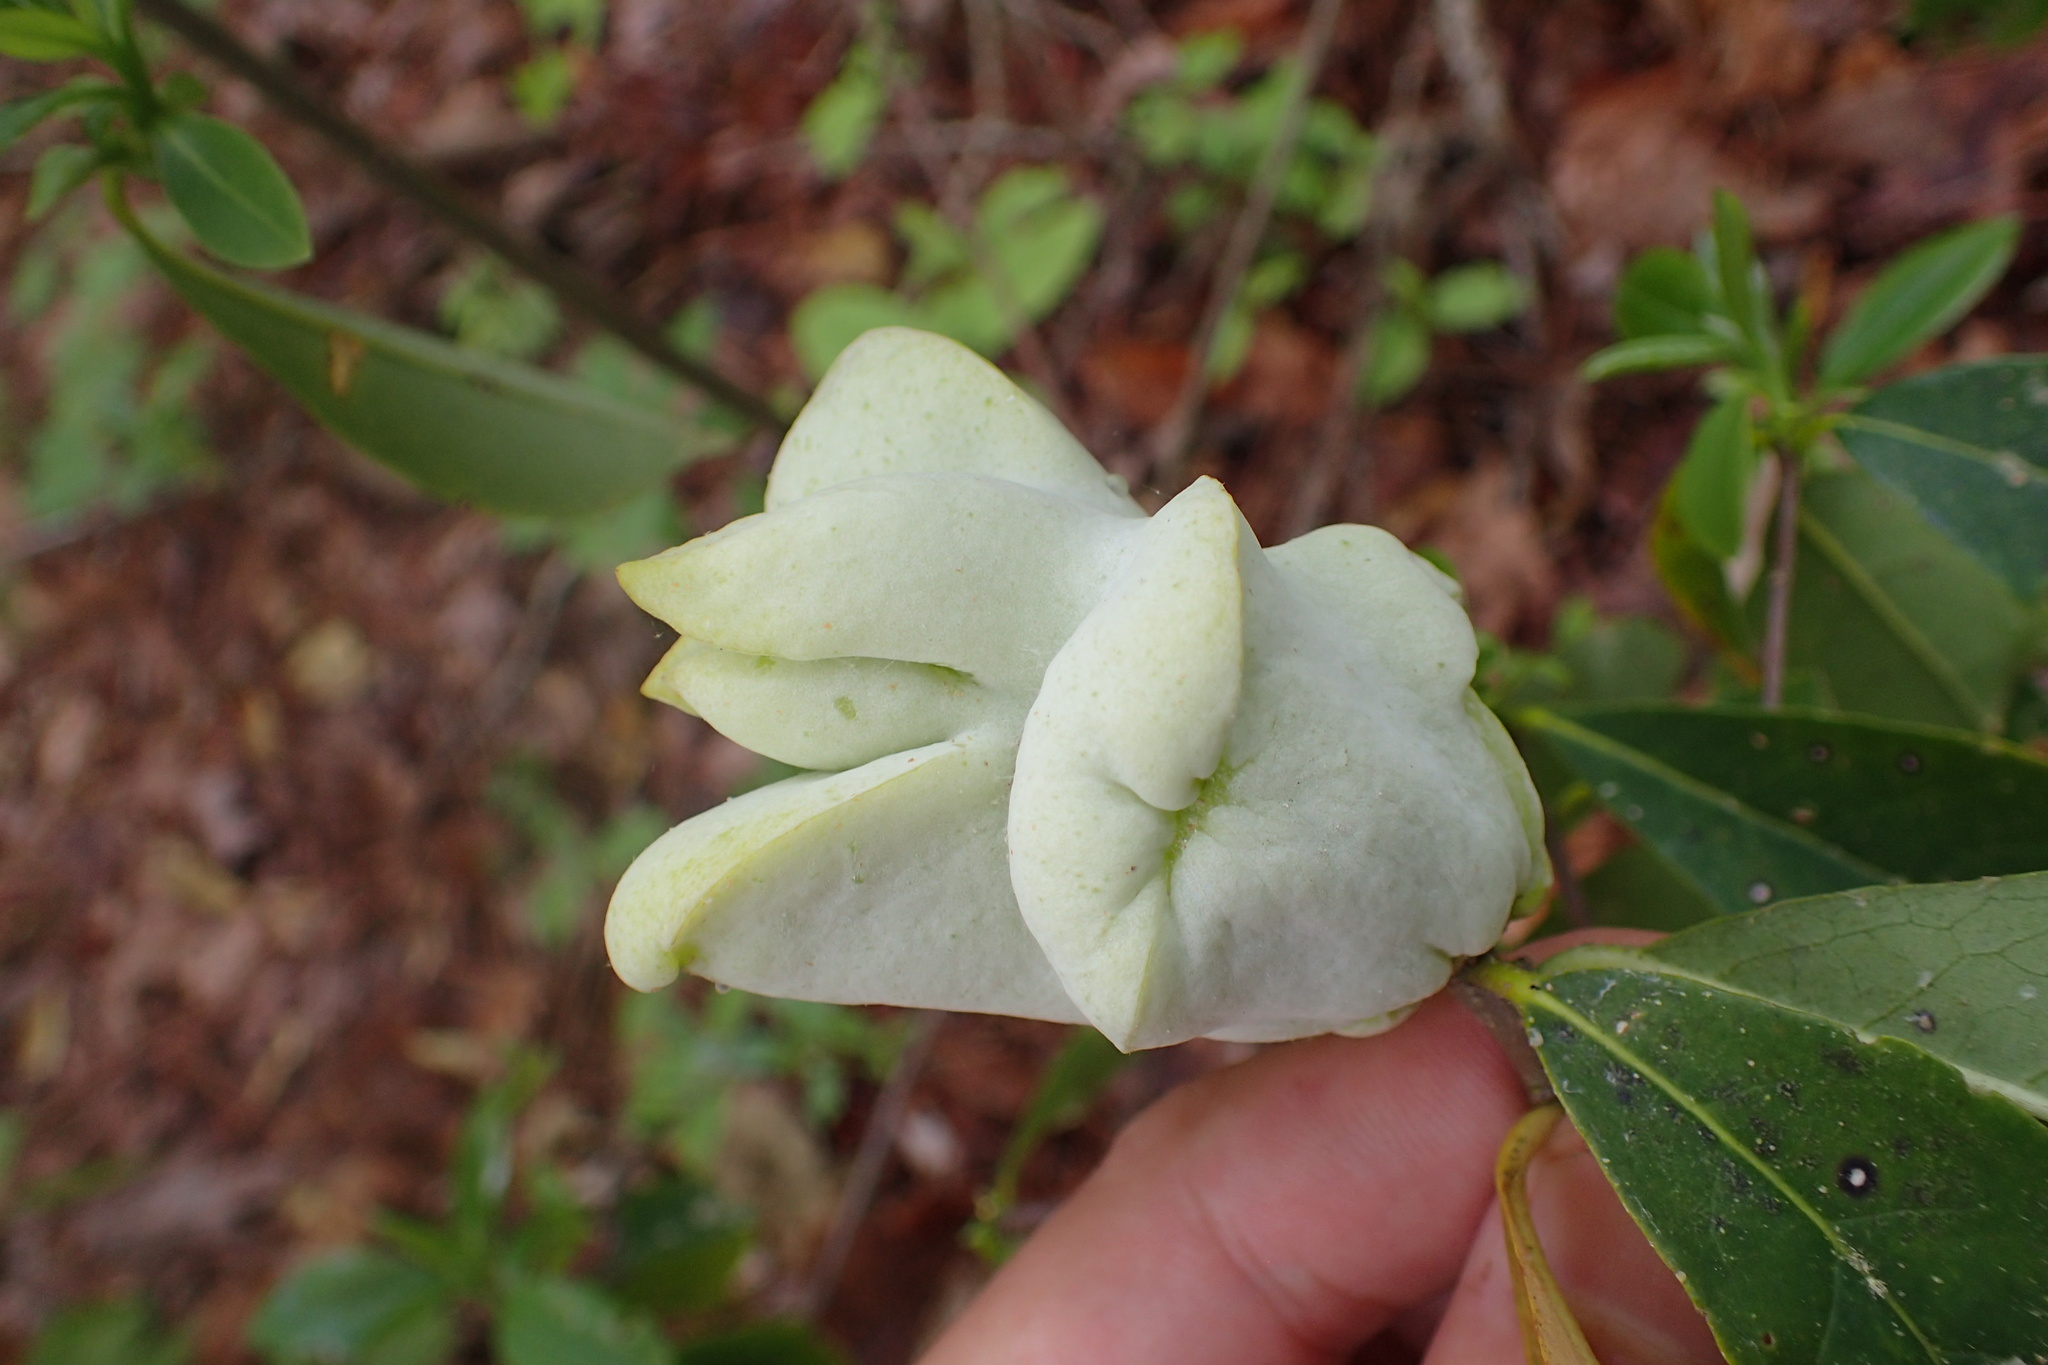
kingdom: Fungi
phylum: Basidiomycota
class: Exobasidiomycetes
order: Exobasidiales
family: Exobasidiaceae
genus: Exobasidium
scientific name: Exobasidium symploci
